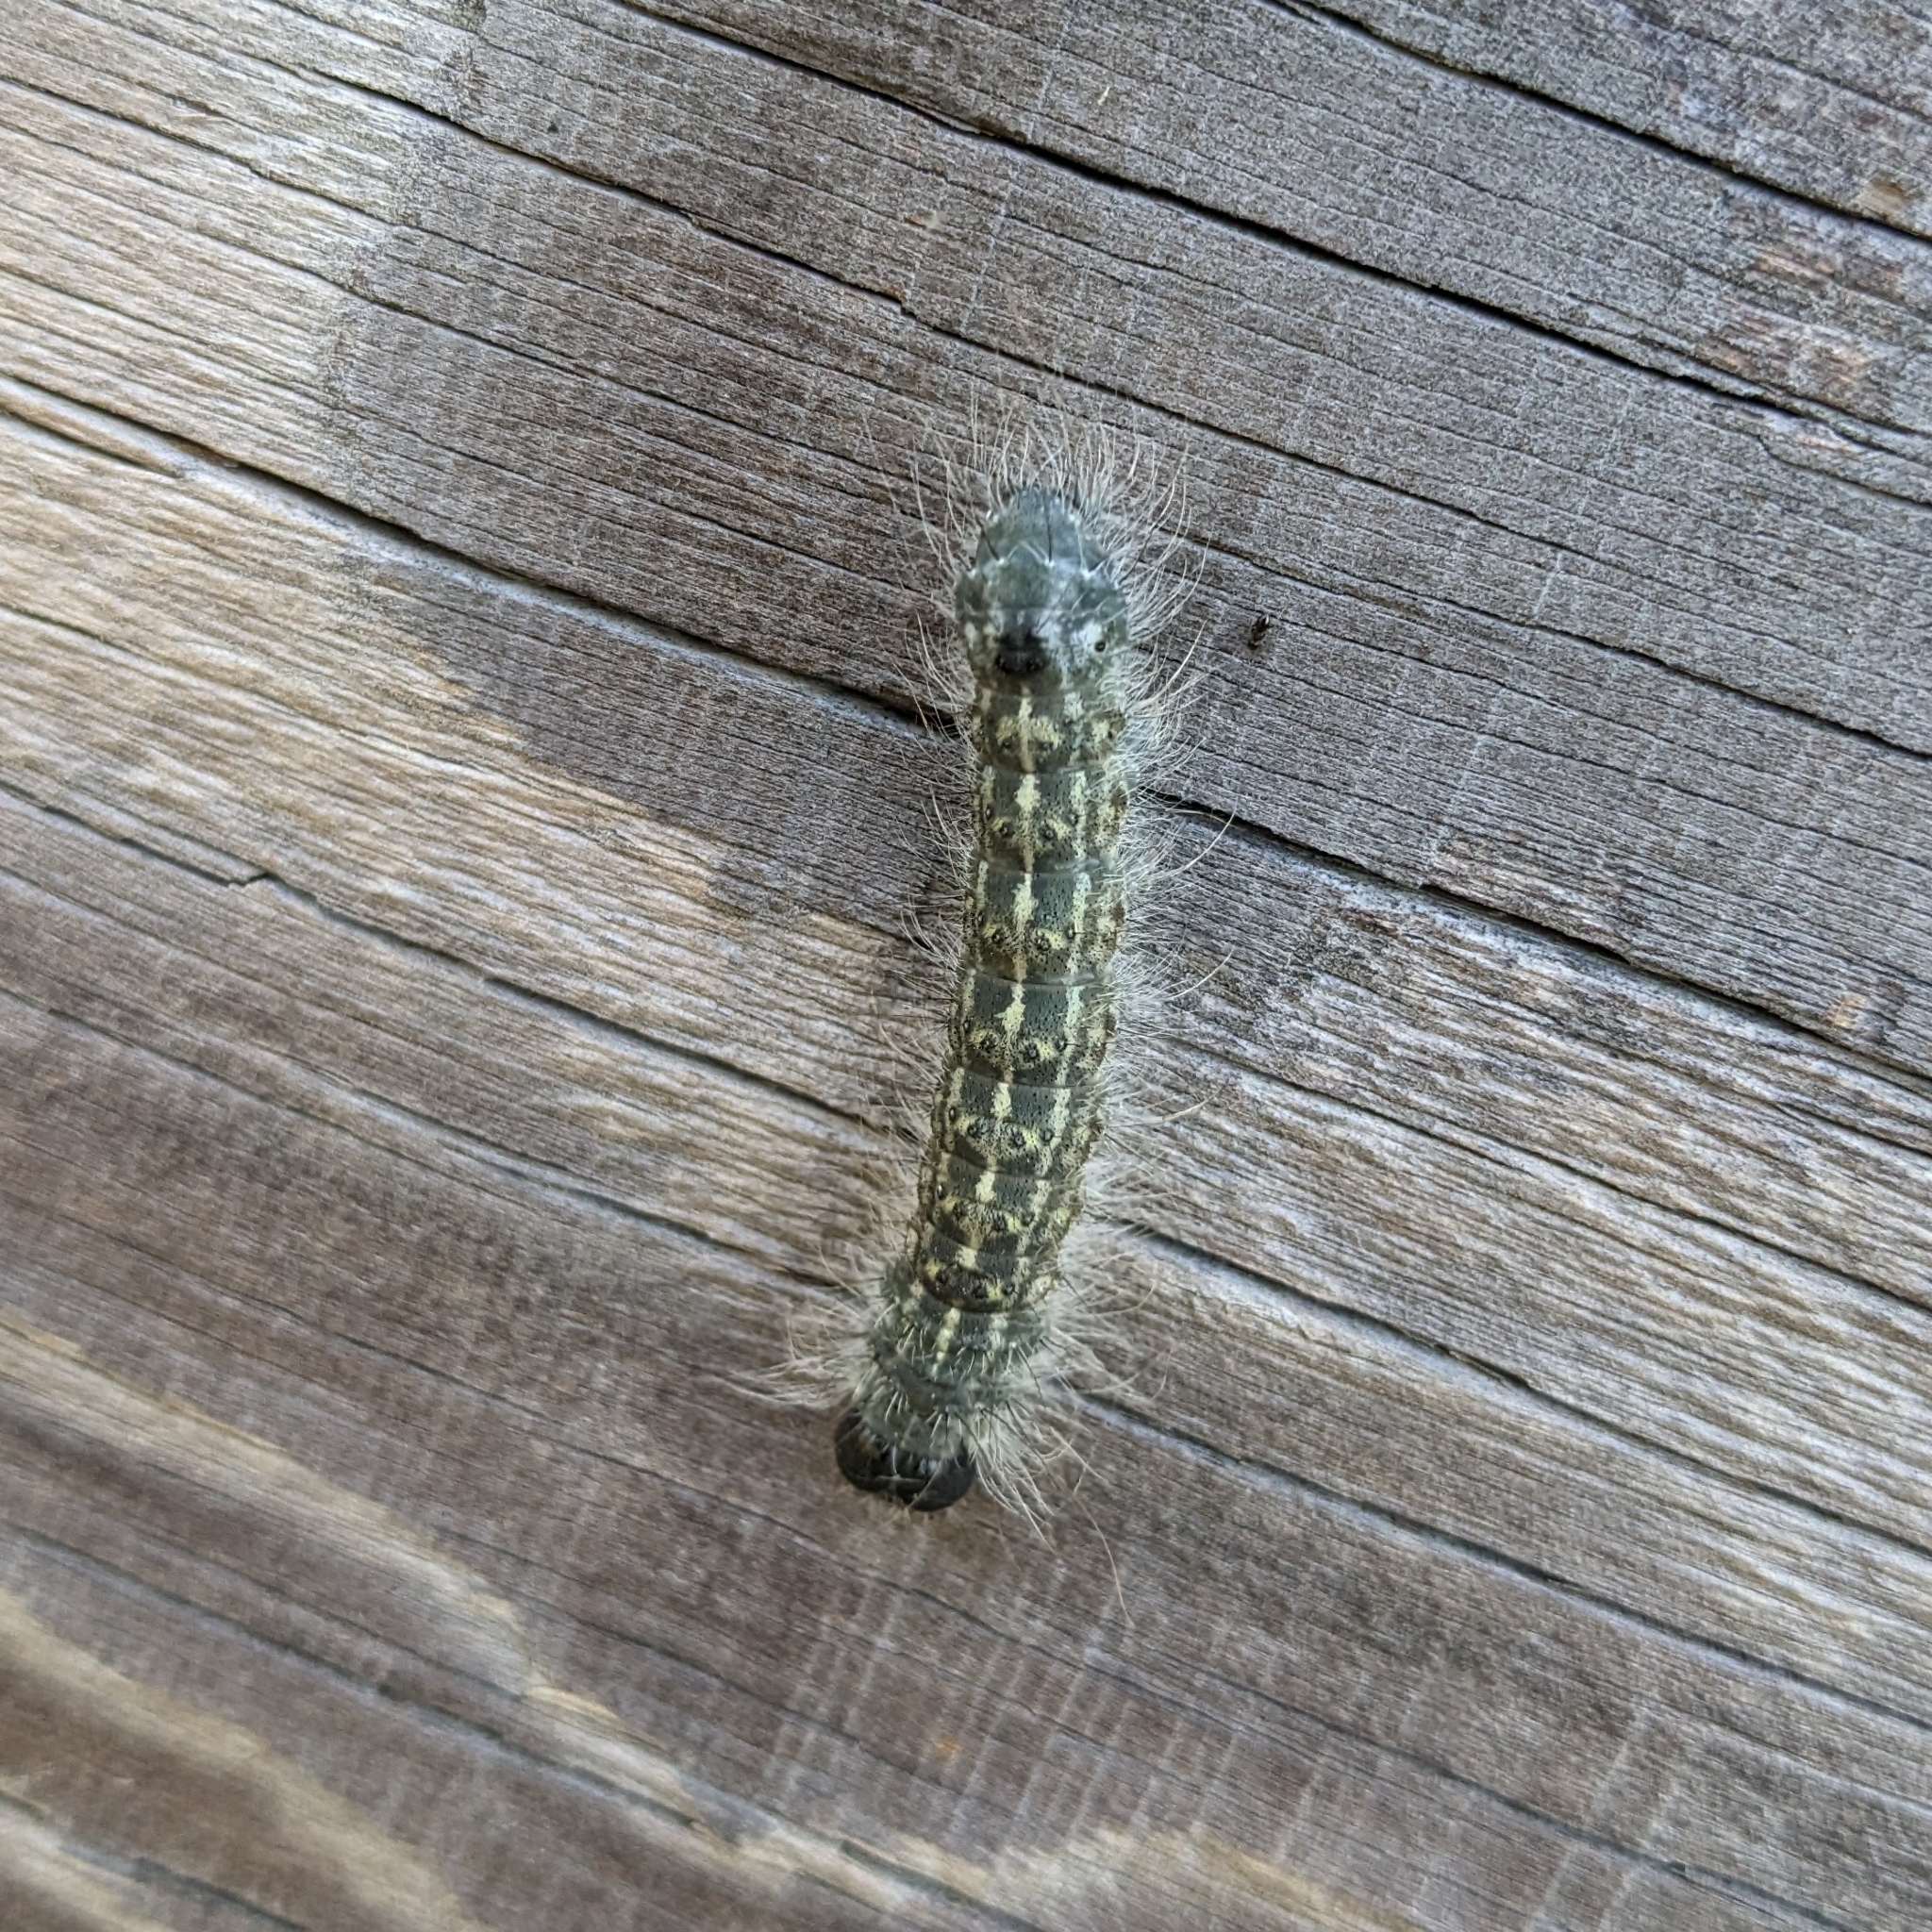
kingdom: Animalia
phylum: Arthropoda
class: Insecta
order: Lepidoptera
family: Noctuidae
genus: Acronicta
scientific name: Acronicta lobeliae
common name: Greater oak dagger
